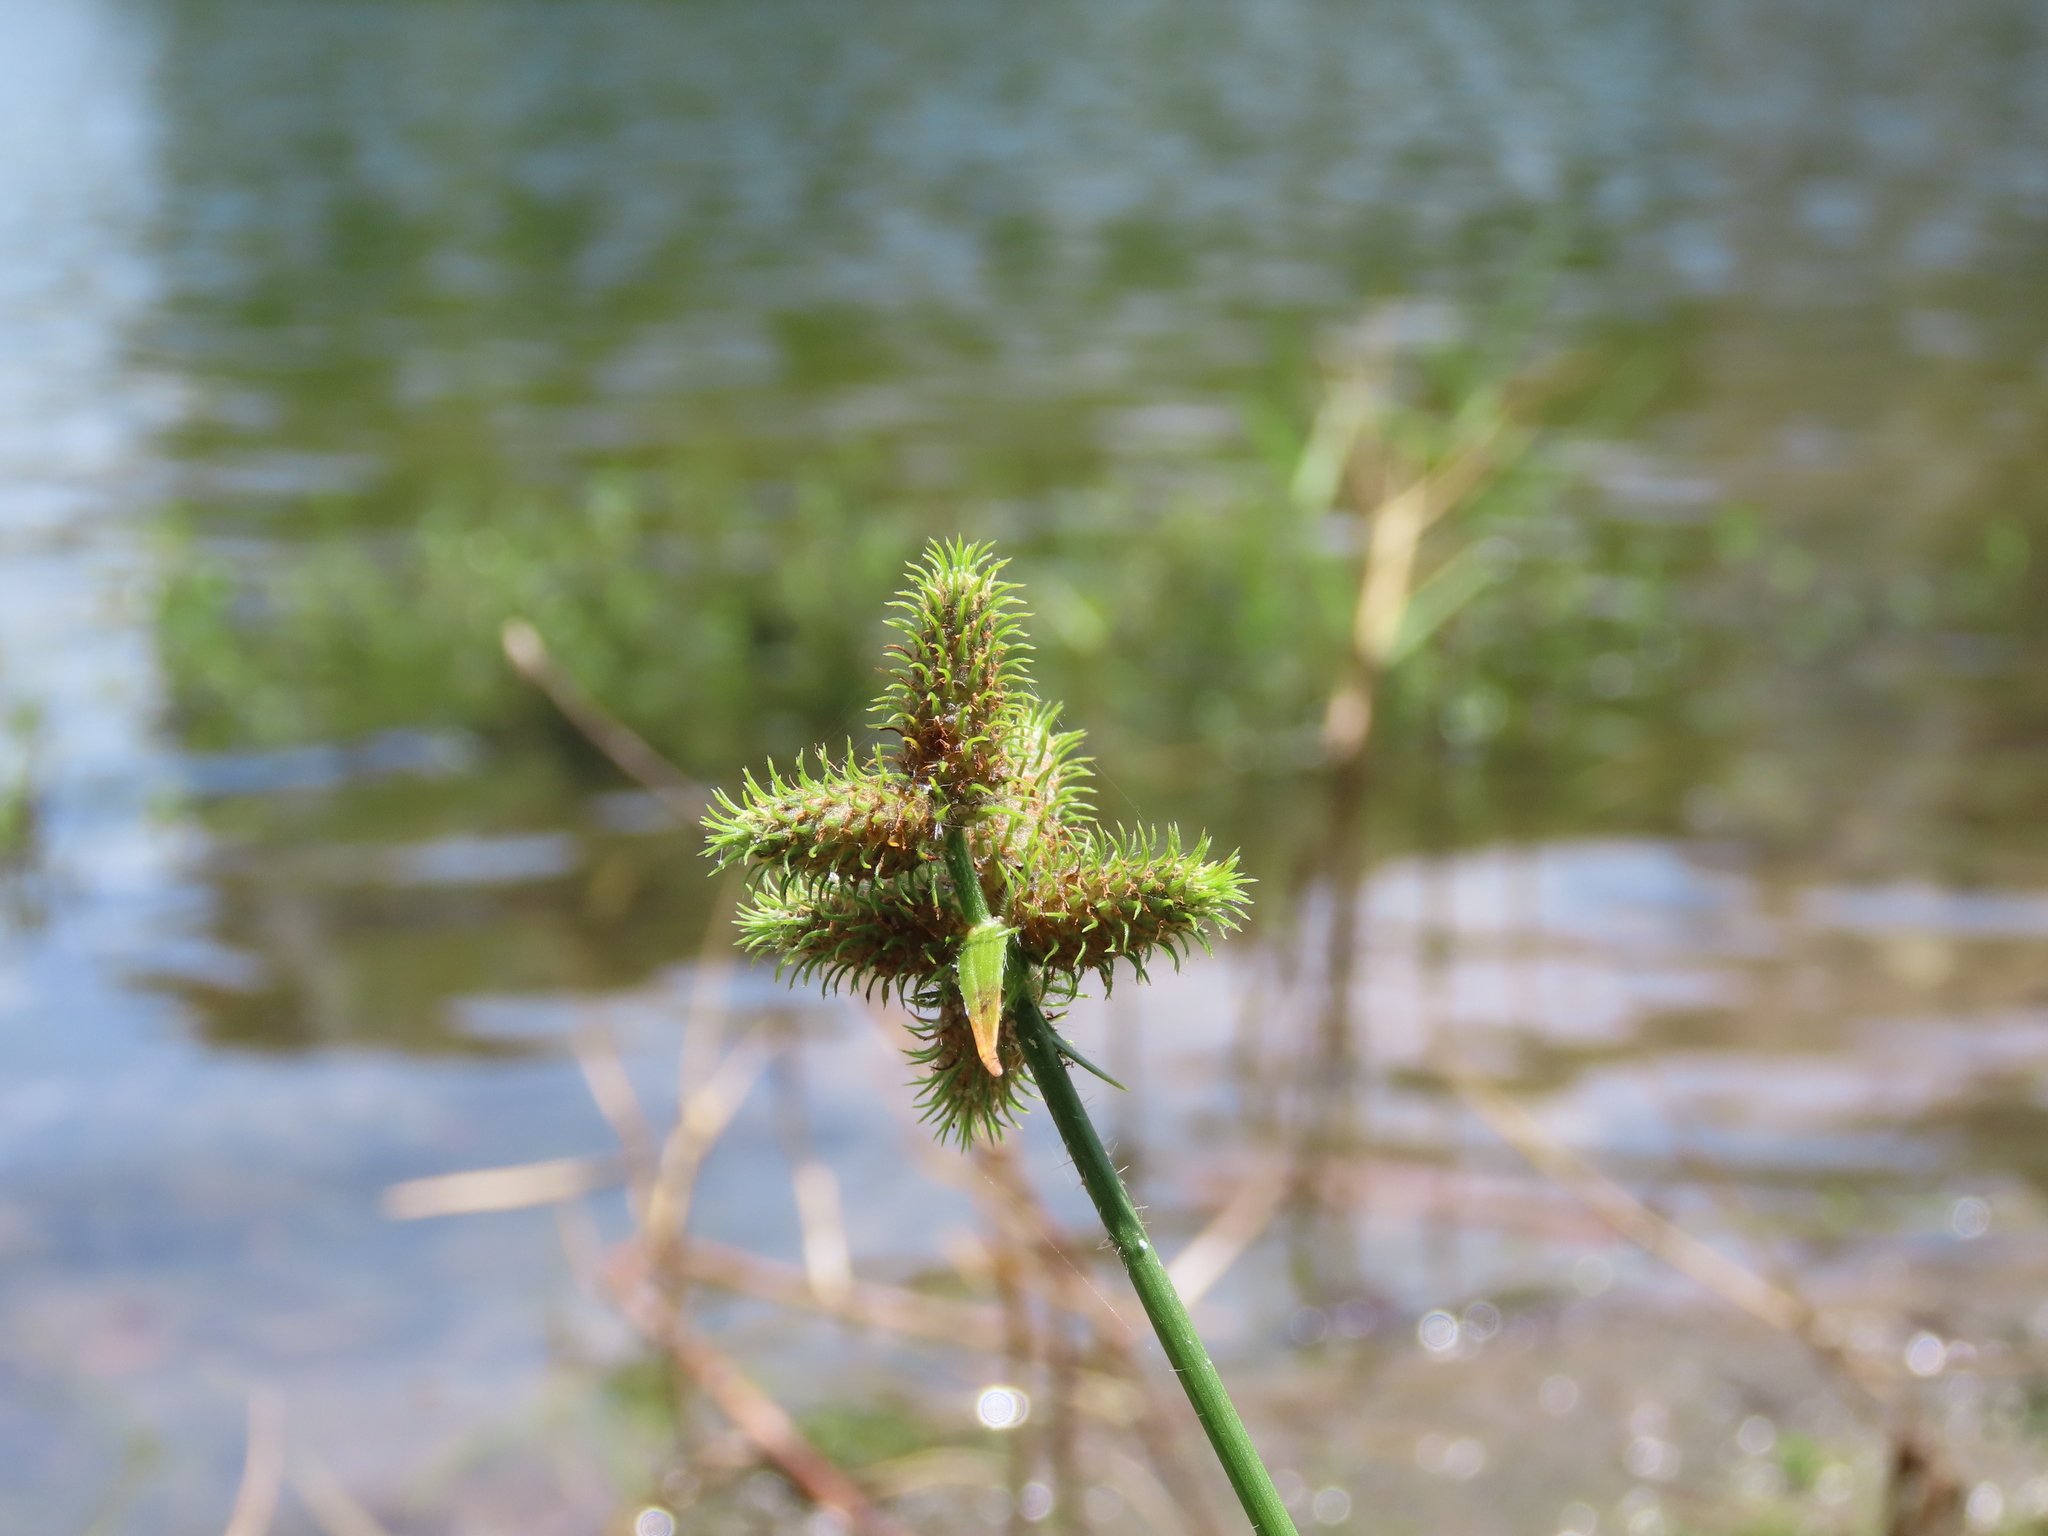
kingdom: Plantae
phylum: Tracheophyta
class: Liliopsida
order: Poales
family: Cyperaceae
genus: Fuirena
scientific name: Fuirena breviseta
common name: Saltmarsh umbrella sedge
